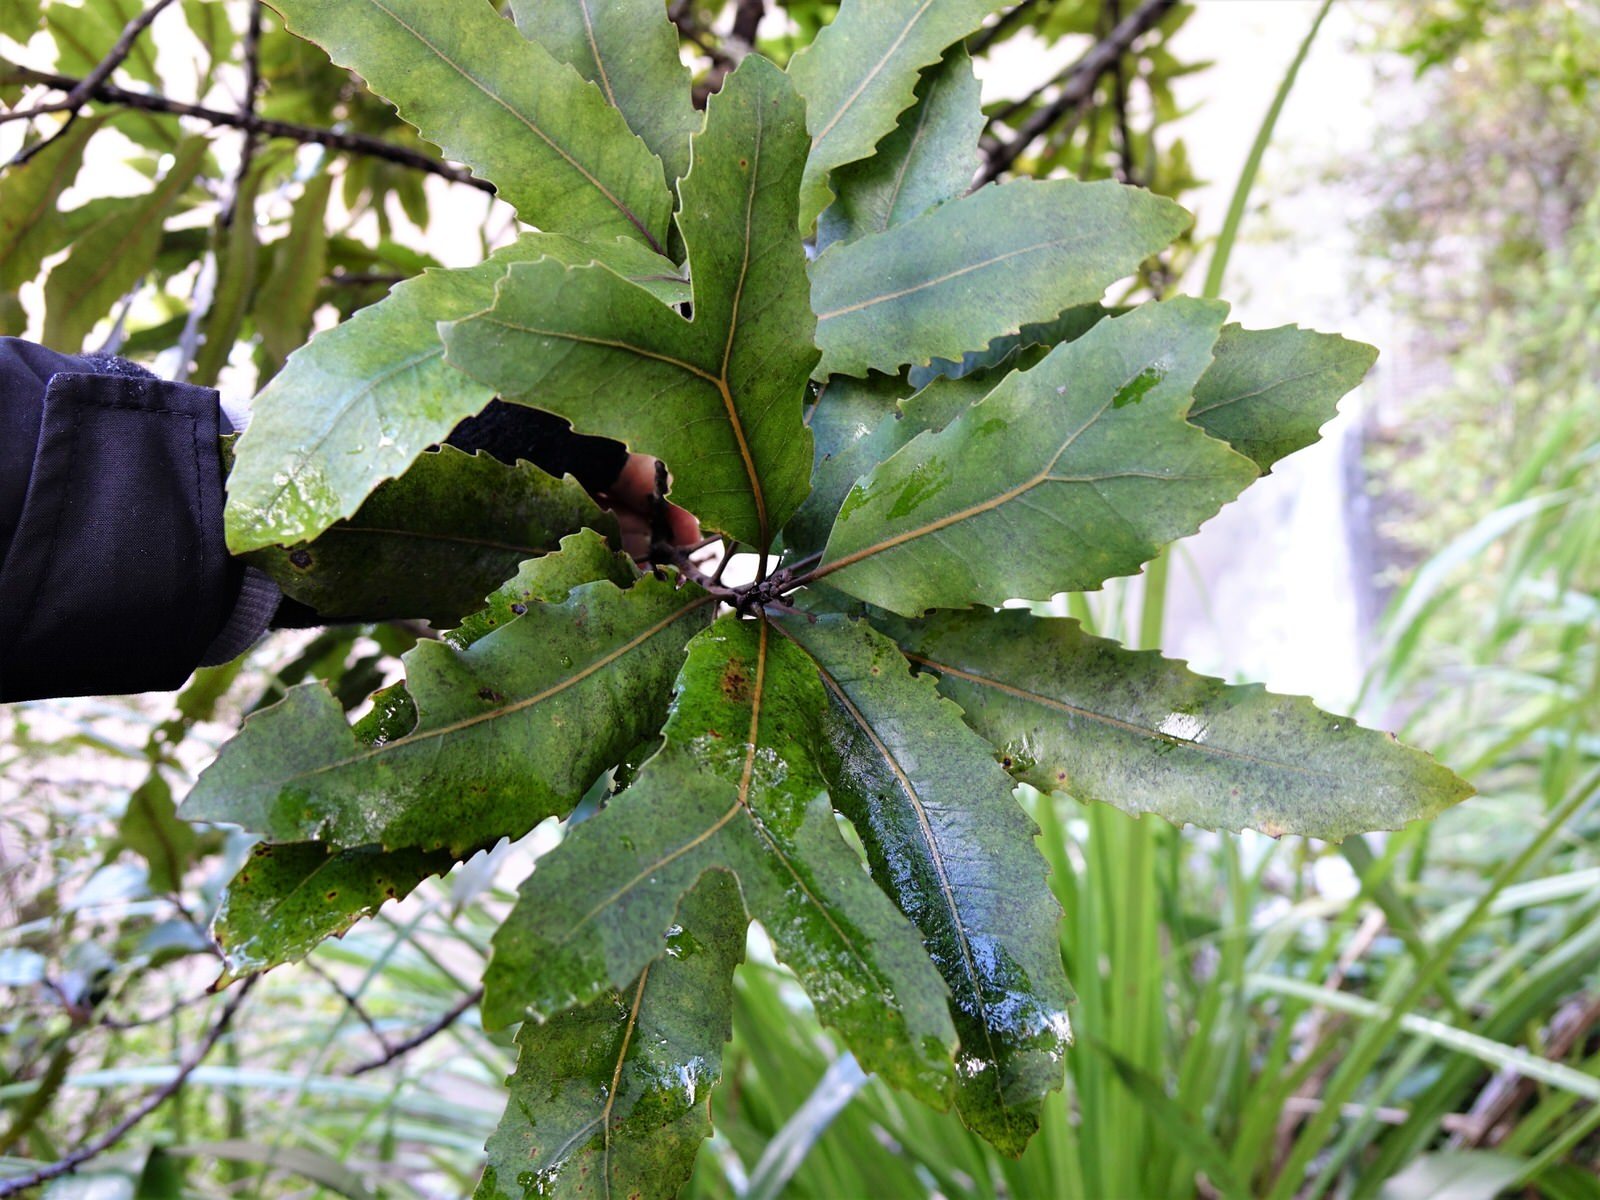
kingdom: Plantae
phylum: Tracheophyta
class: Magnoliopsida
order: Proteales
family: Proteaceae
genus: Knightia
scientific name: Knightia excelsa
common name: New zealand-honeysuckle
